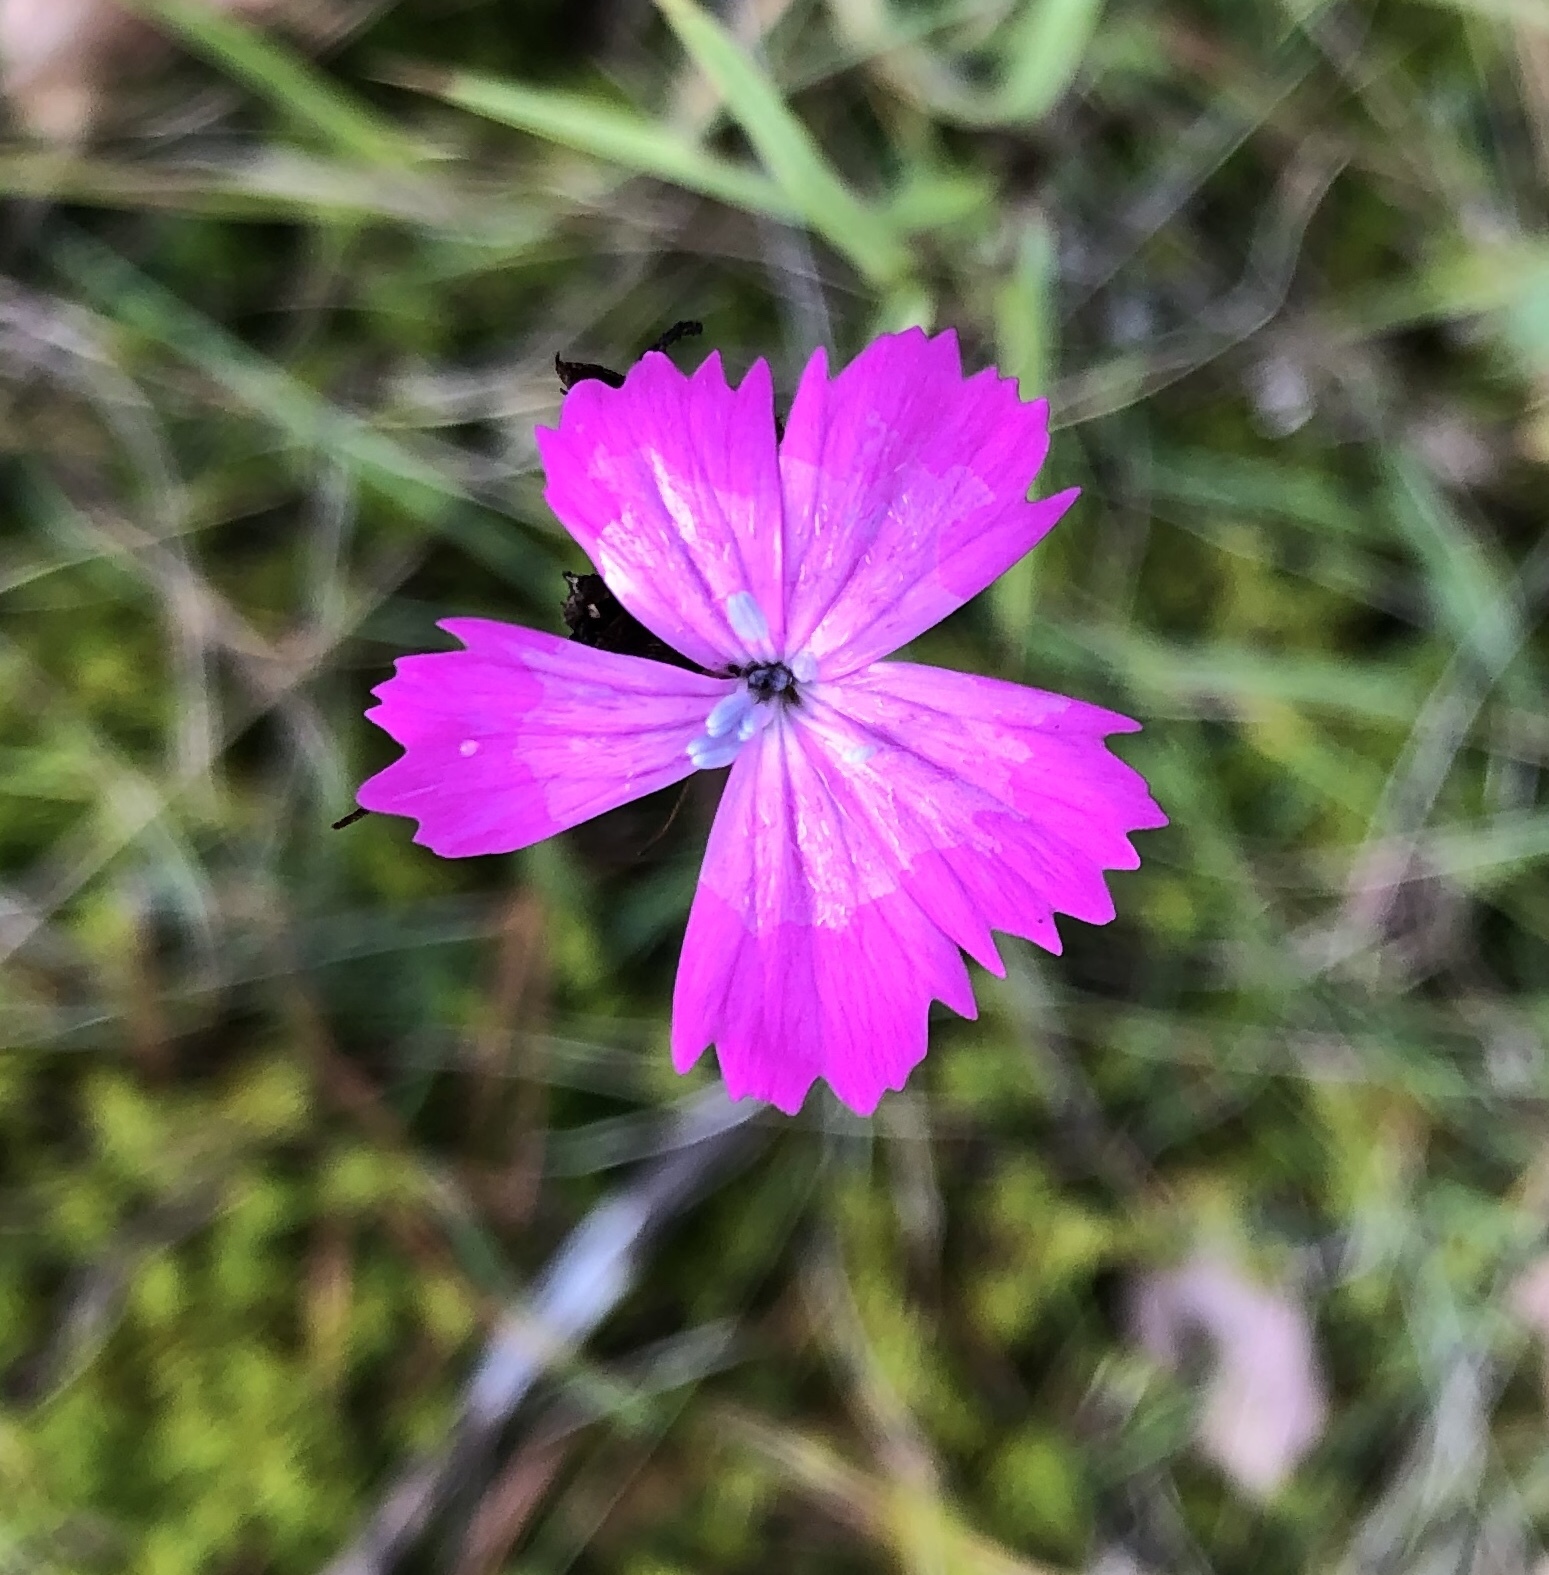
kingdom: Plantae
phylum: Tracheophyta
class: Magnoliopsida
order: Caryophyllales
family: Caryophyllaceae
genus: Dianthus
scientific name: Dianthus carthusianorum
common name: Carthusian pink
